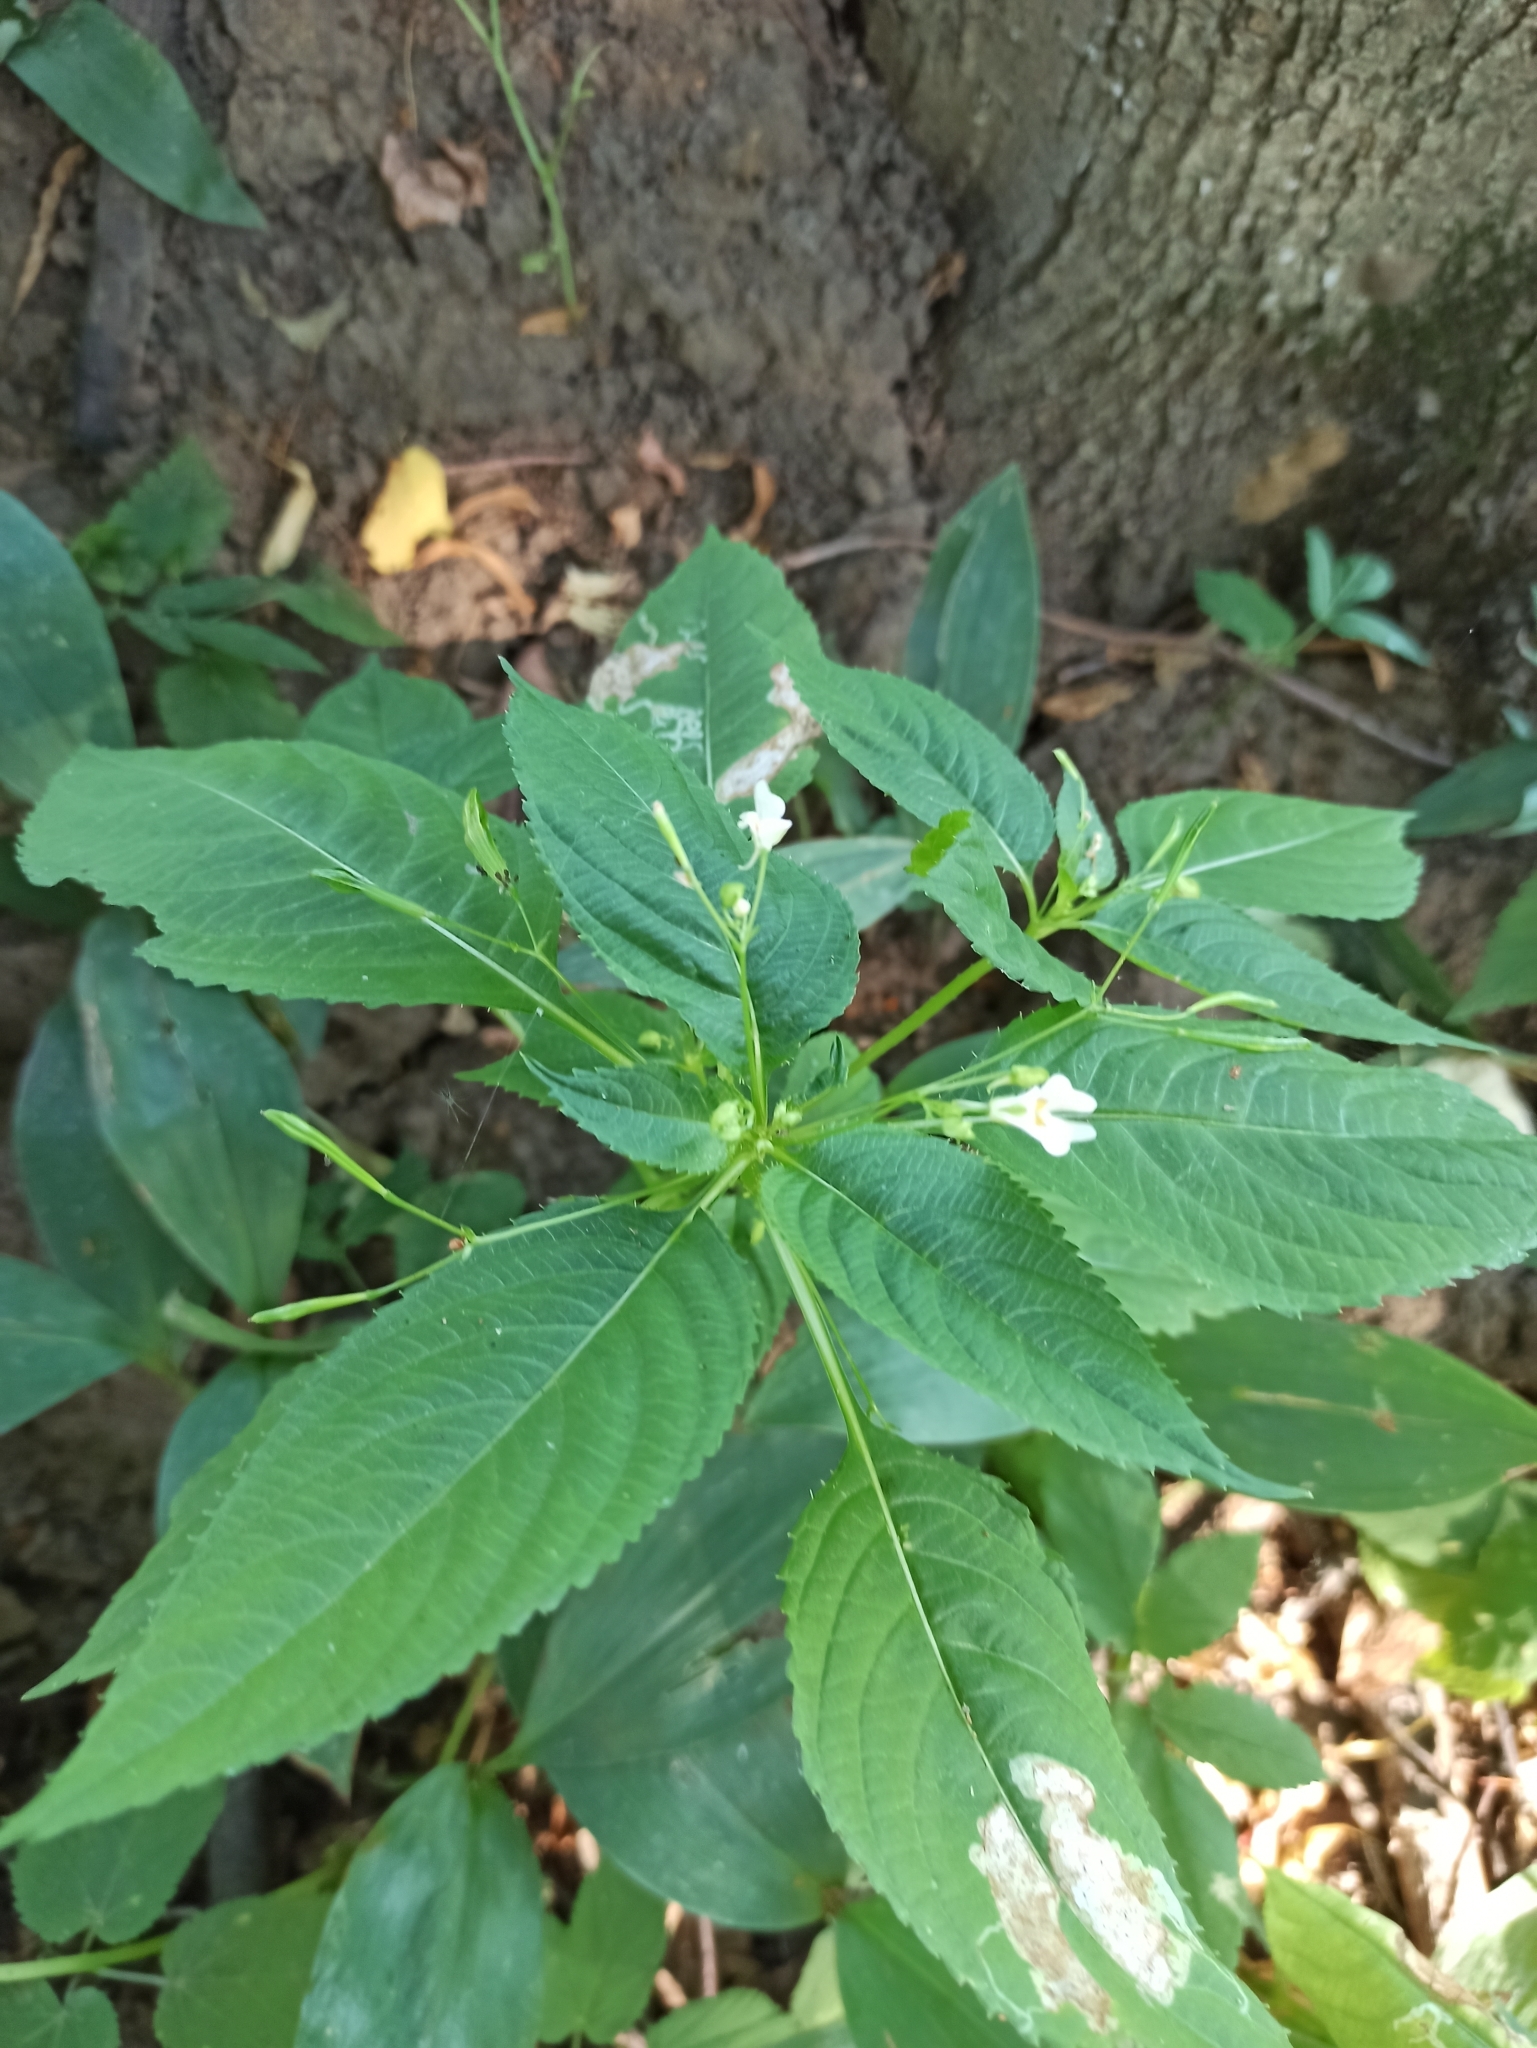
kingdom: Plantae
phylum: Tracheophyta
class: Magnoliopsida
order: Ericales
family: Balsaminaceae
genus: Impatiens
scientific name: Impatiens parviflora
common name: Small balsam
